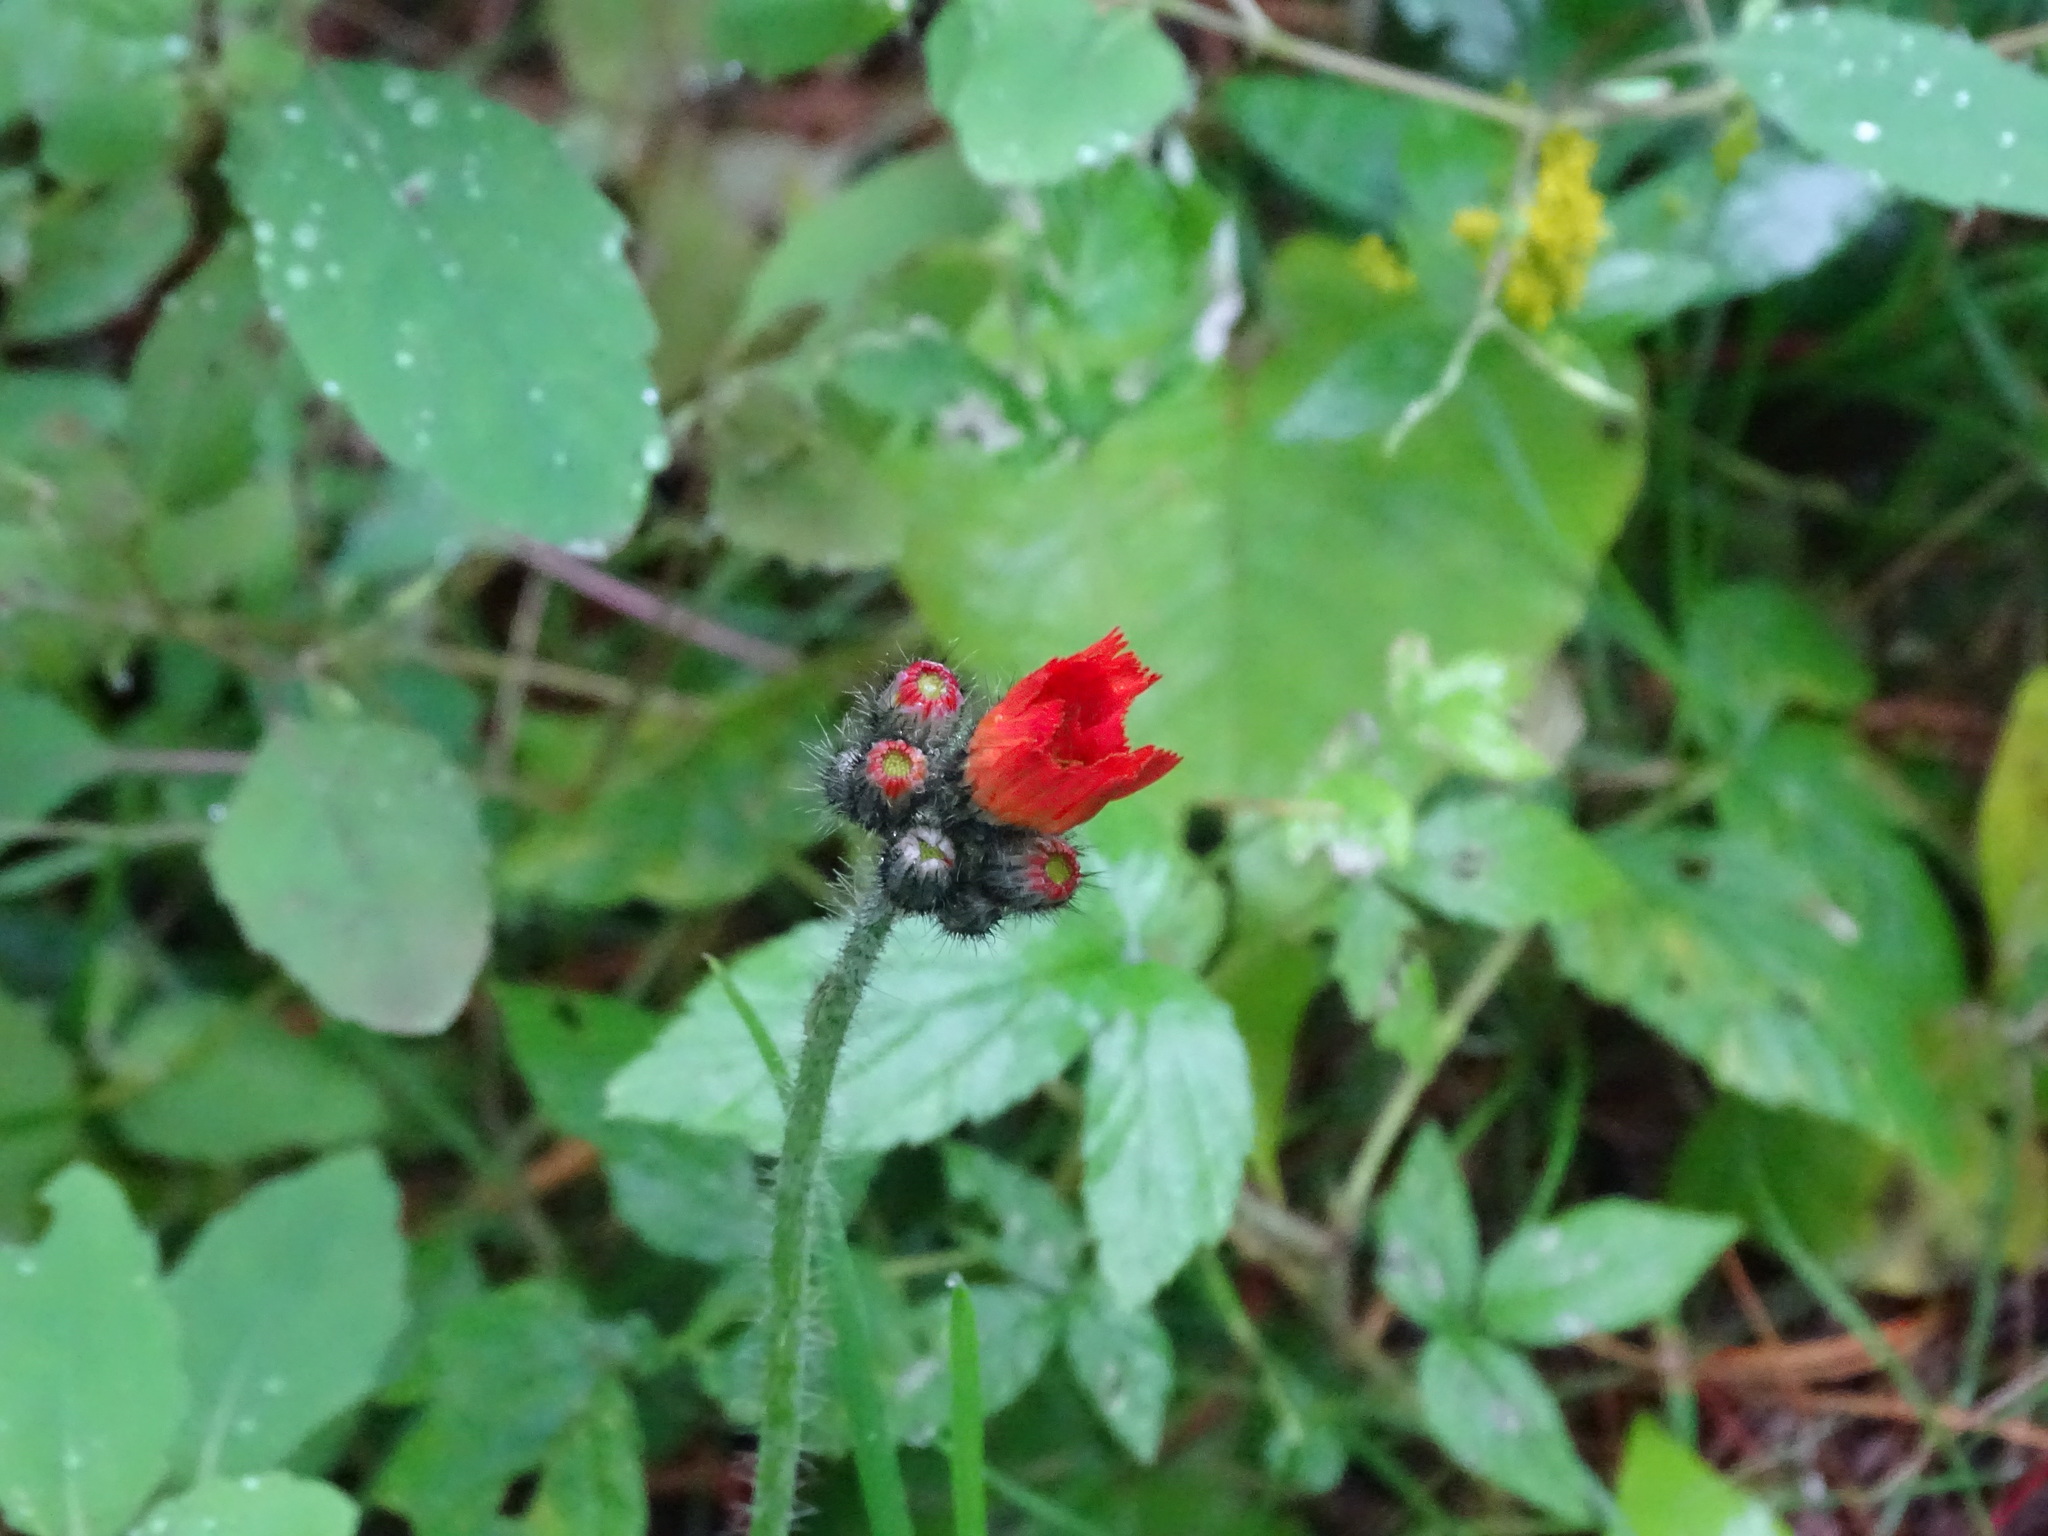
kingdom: Plantae
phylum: Tracheophyta
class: Magnoliopsida
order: Asterales
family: Asteraceae
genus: Pilosella
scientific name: Pilosella aurantiaca
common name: Fox-and-cubs
